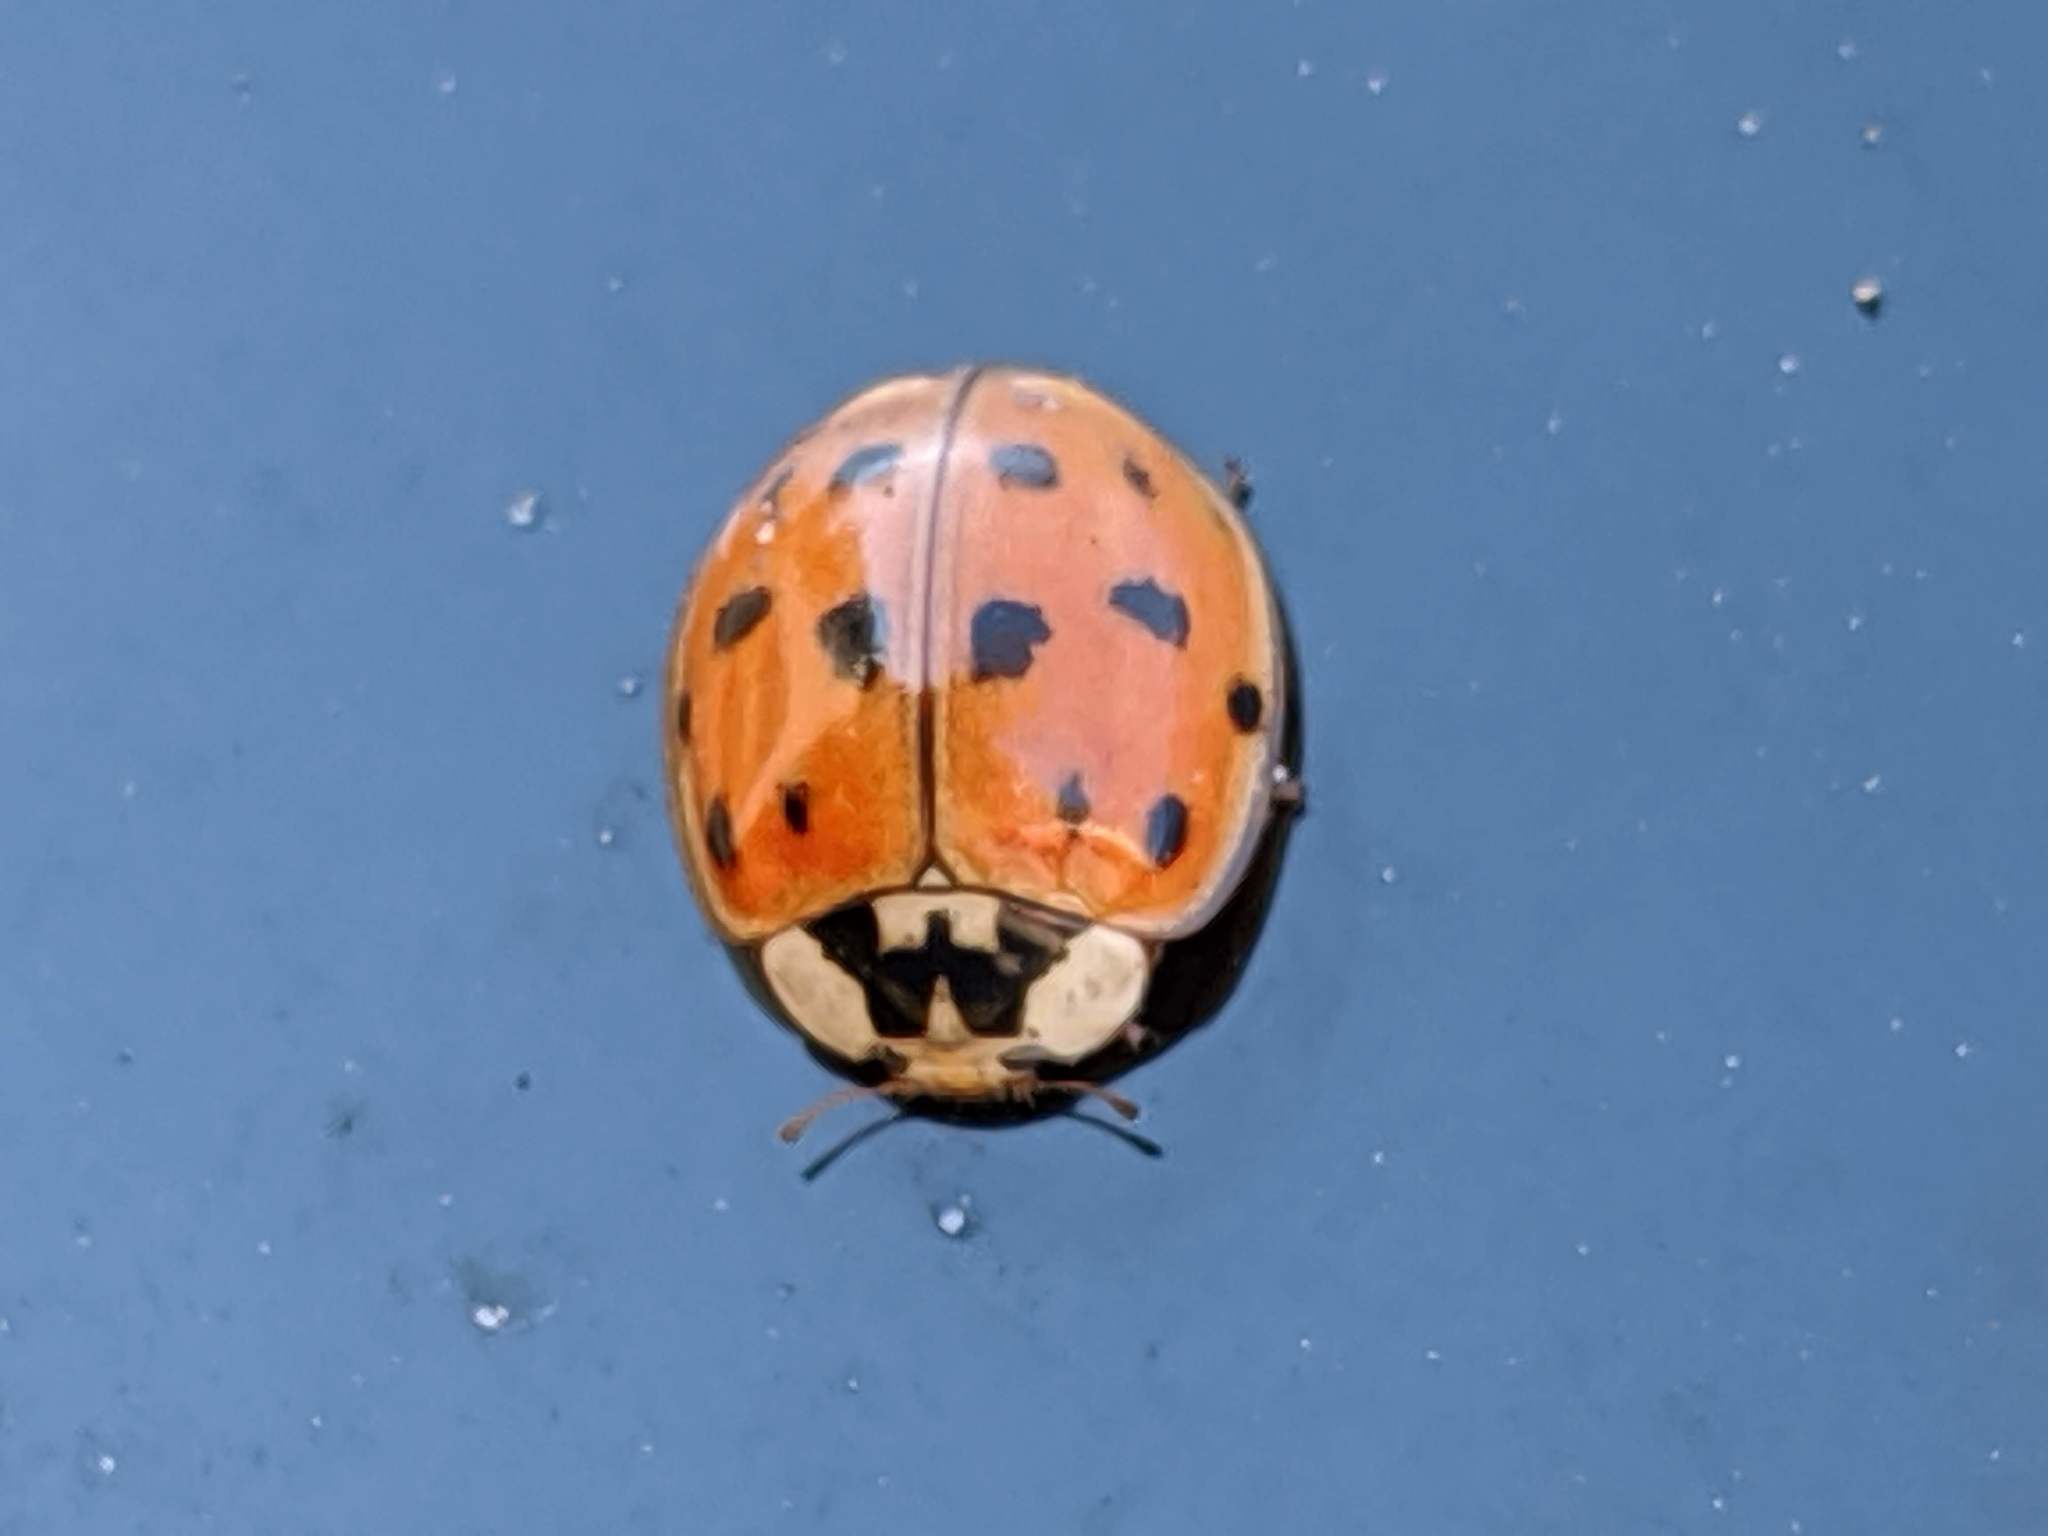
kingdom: Animalia
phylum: Arthropoda
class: Insecta
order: Coleoptera
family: Coccinellidae
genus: Harmonia
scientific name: Harmonia axyridis
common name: Harlequin ladybird
